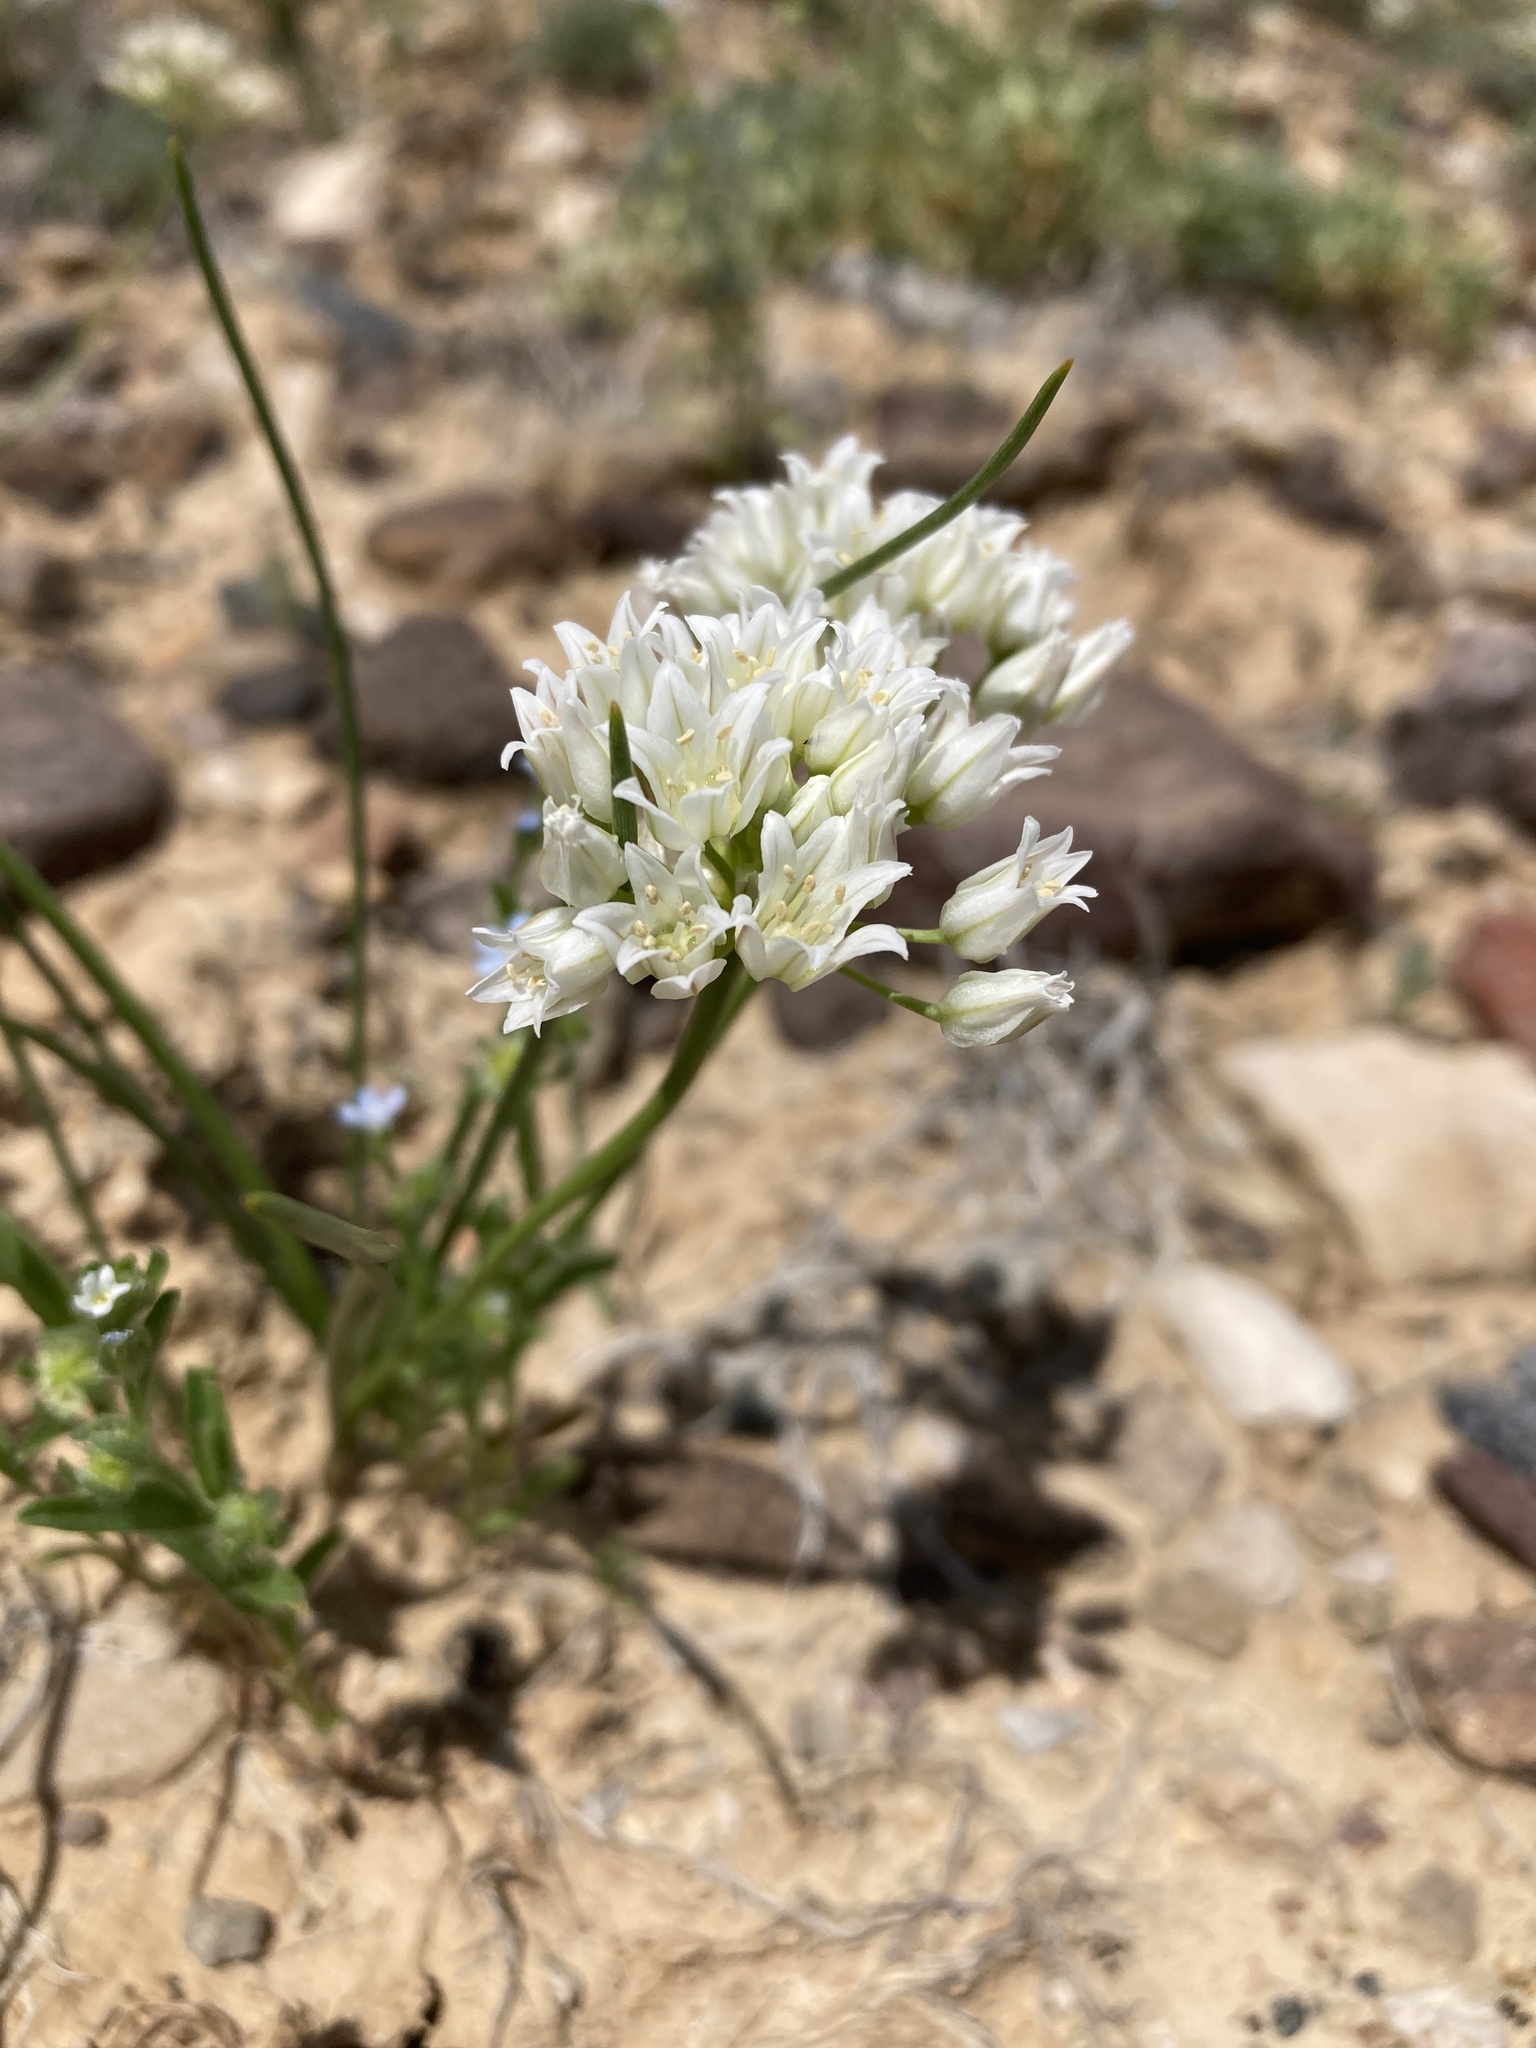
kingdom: Plantae
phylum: Tracheophyta
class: Liliopsida
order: Asparagales
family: Amaryllidaceae
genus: Allium
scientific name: Allium textile
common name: Prairie onion
